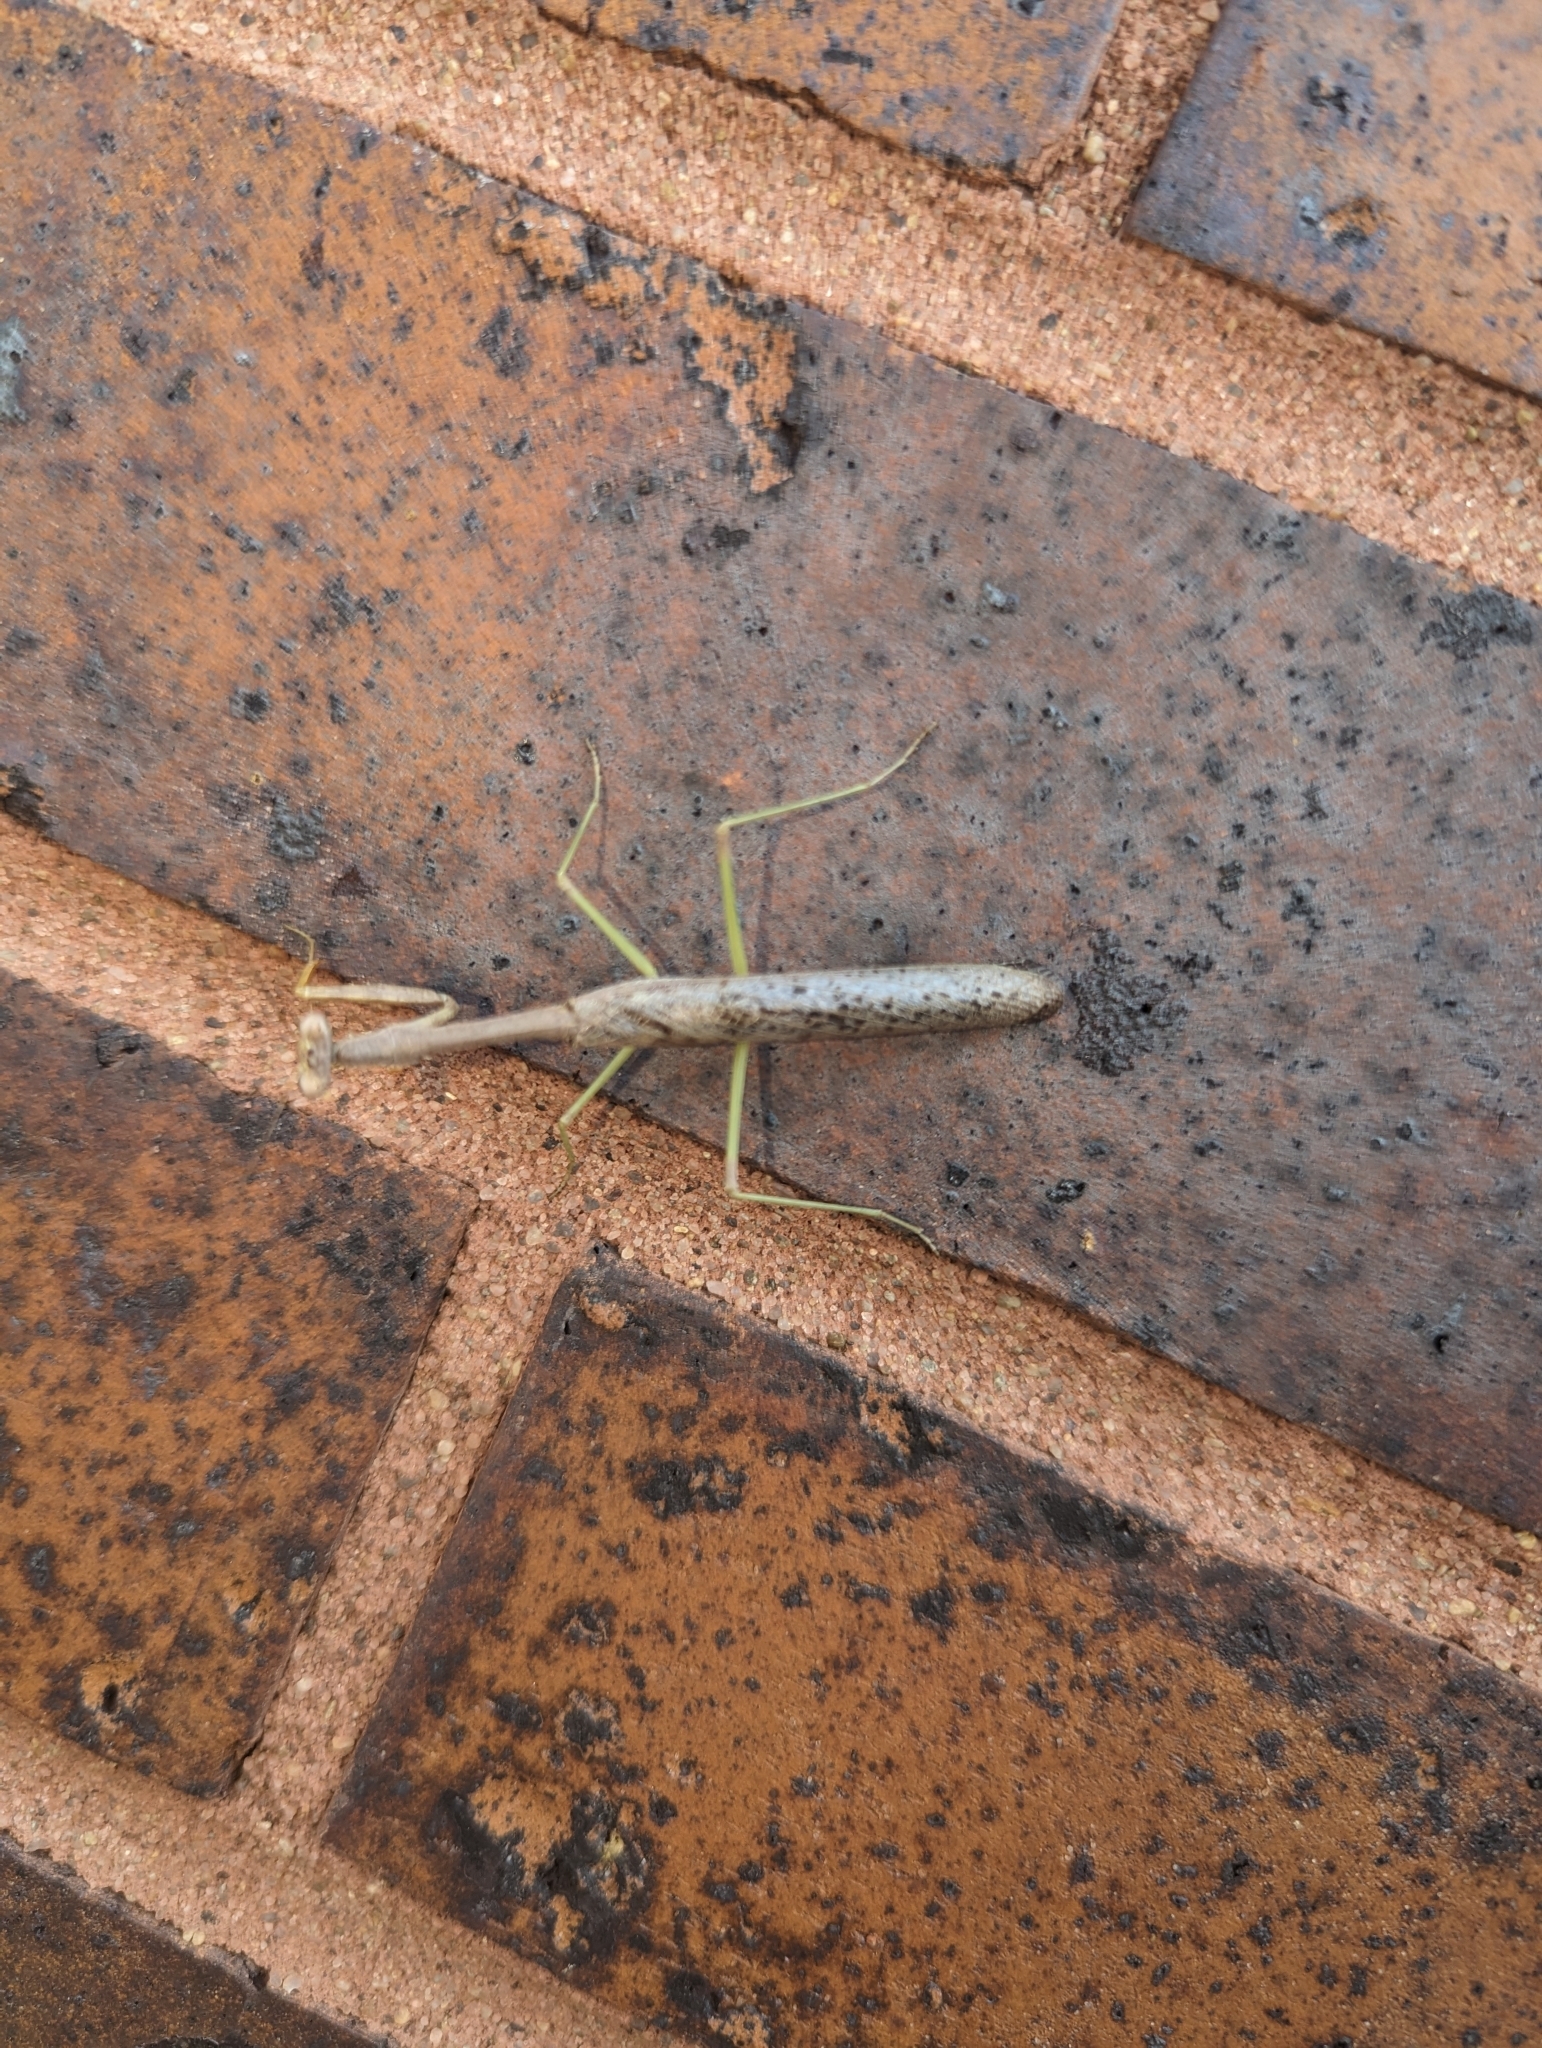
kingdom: Animalia
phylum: Arthropoda
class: Insecta
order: Mantodea
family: Mantidae
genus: Stagmomantis
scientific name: Stagmomantis carolina
